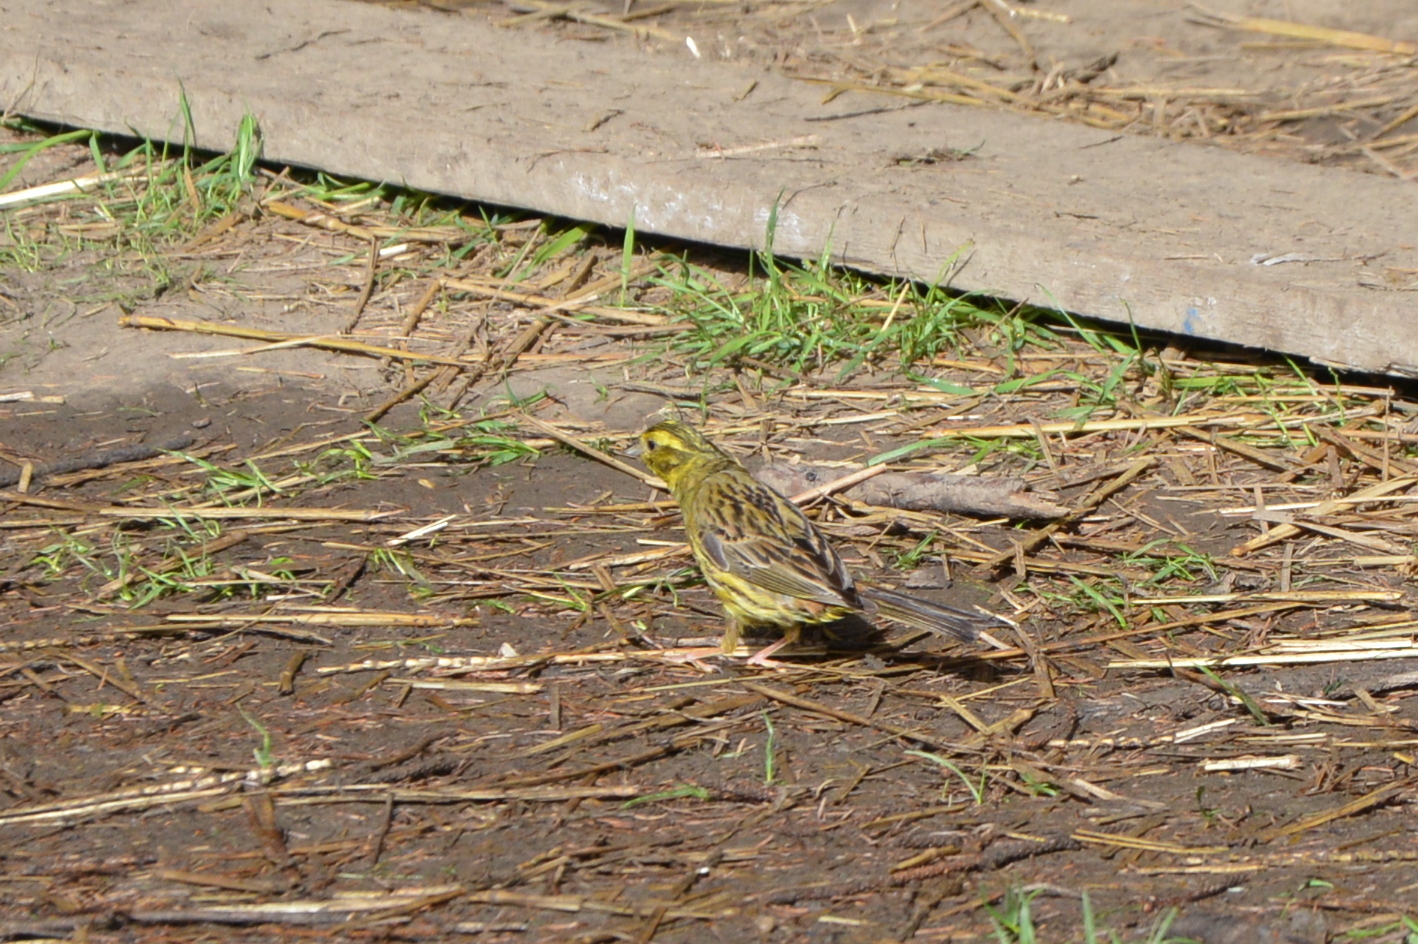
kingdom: Animalia
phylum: Chordata
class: Aves
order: Passeriformes
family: Emberizidae
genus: Emberiza
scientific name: Emberiza citrinella
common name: Yellowhammer
